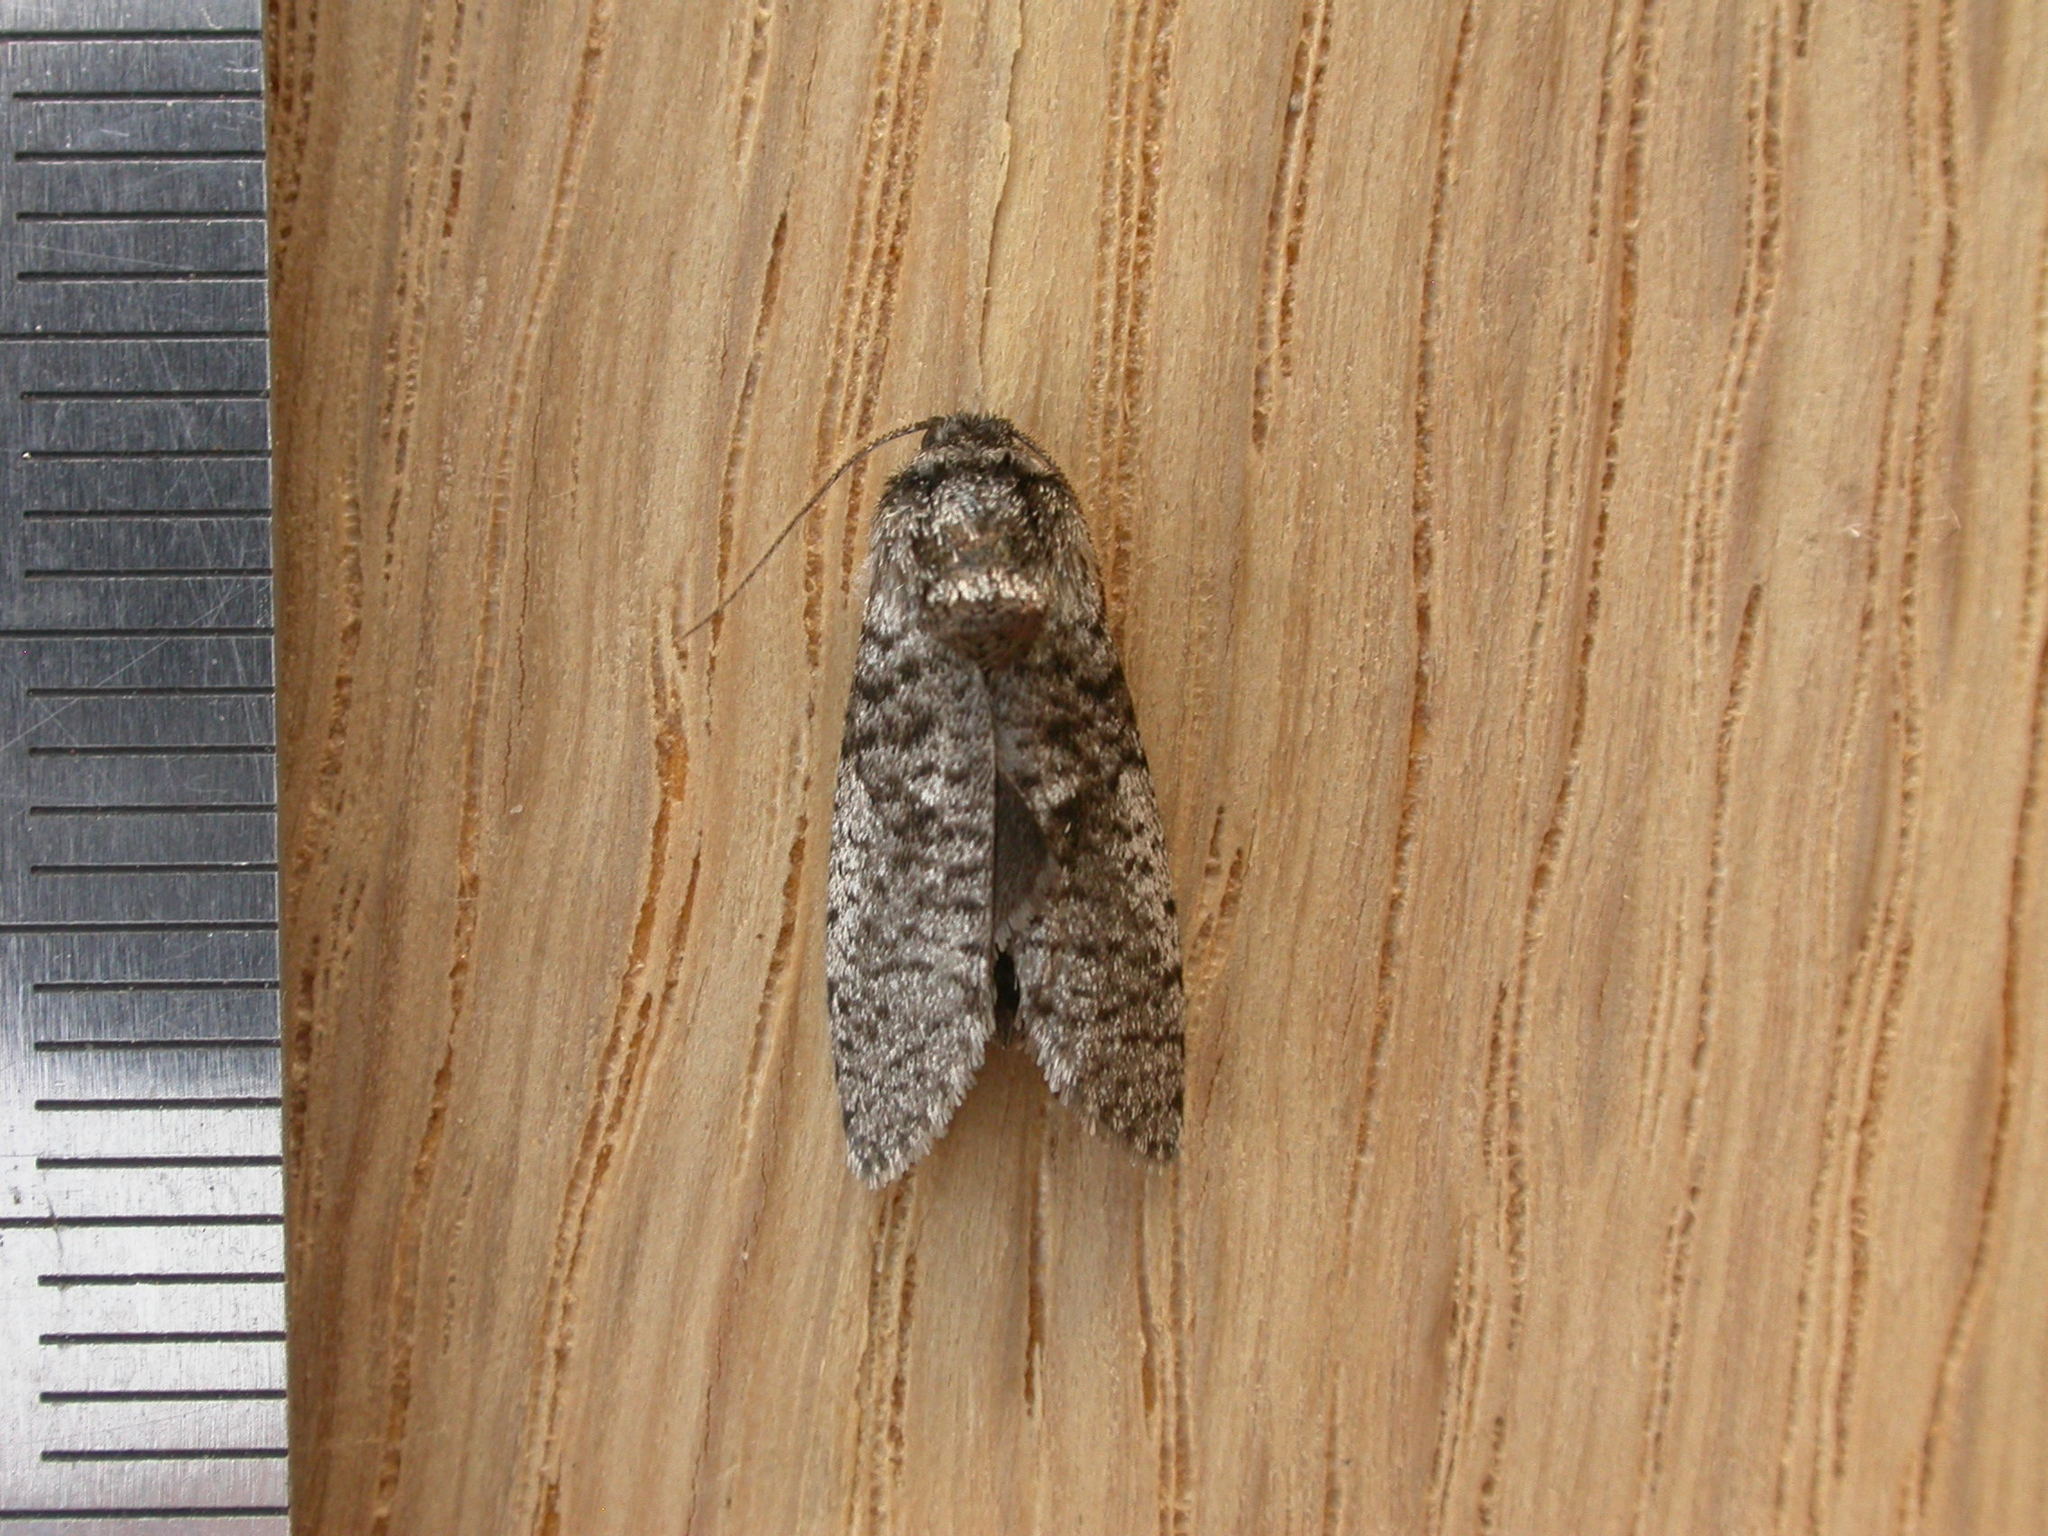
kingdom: Animalia
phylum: Arthropoda
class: Insecta
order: Lepidoptera
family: Psychidae
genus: Trigonocyttara
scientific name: Trigonocyttara clandestina
